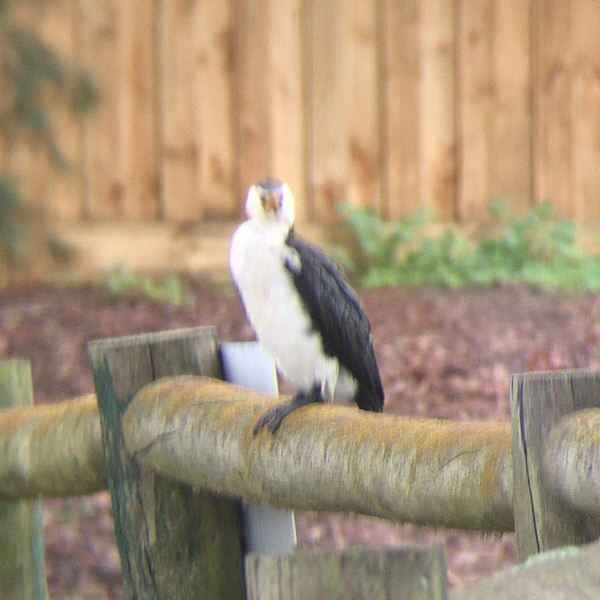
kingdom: Animalia
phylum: Chordata
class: Aves
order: Suliformes
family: Phalacrocoracidae
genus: Microcarbo
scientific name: Microcarbo melanoleucos
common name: Little pied cormorant
